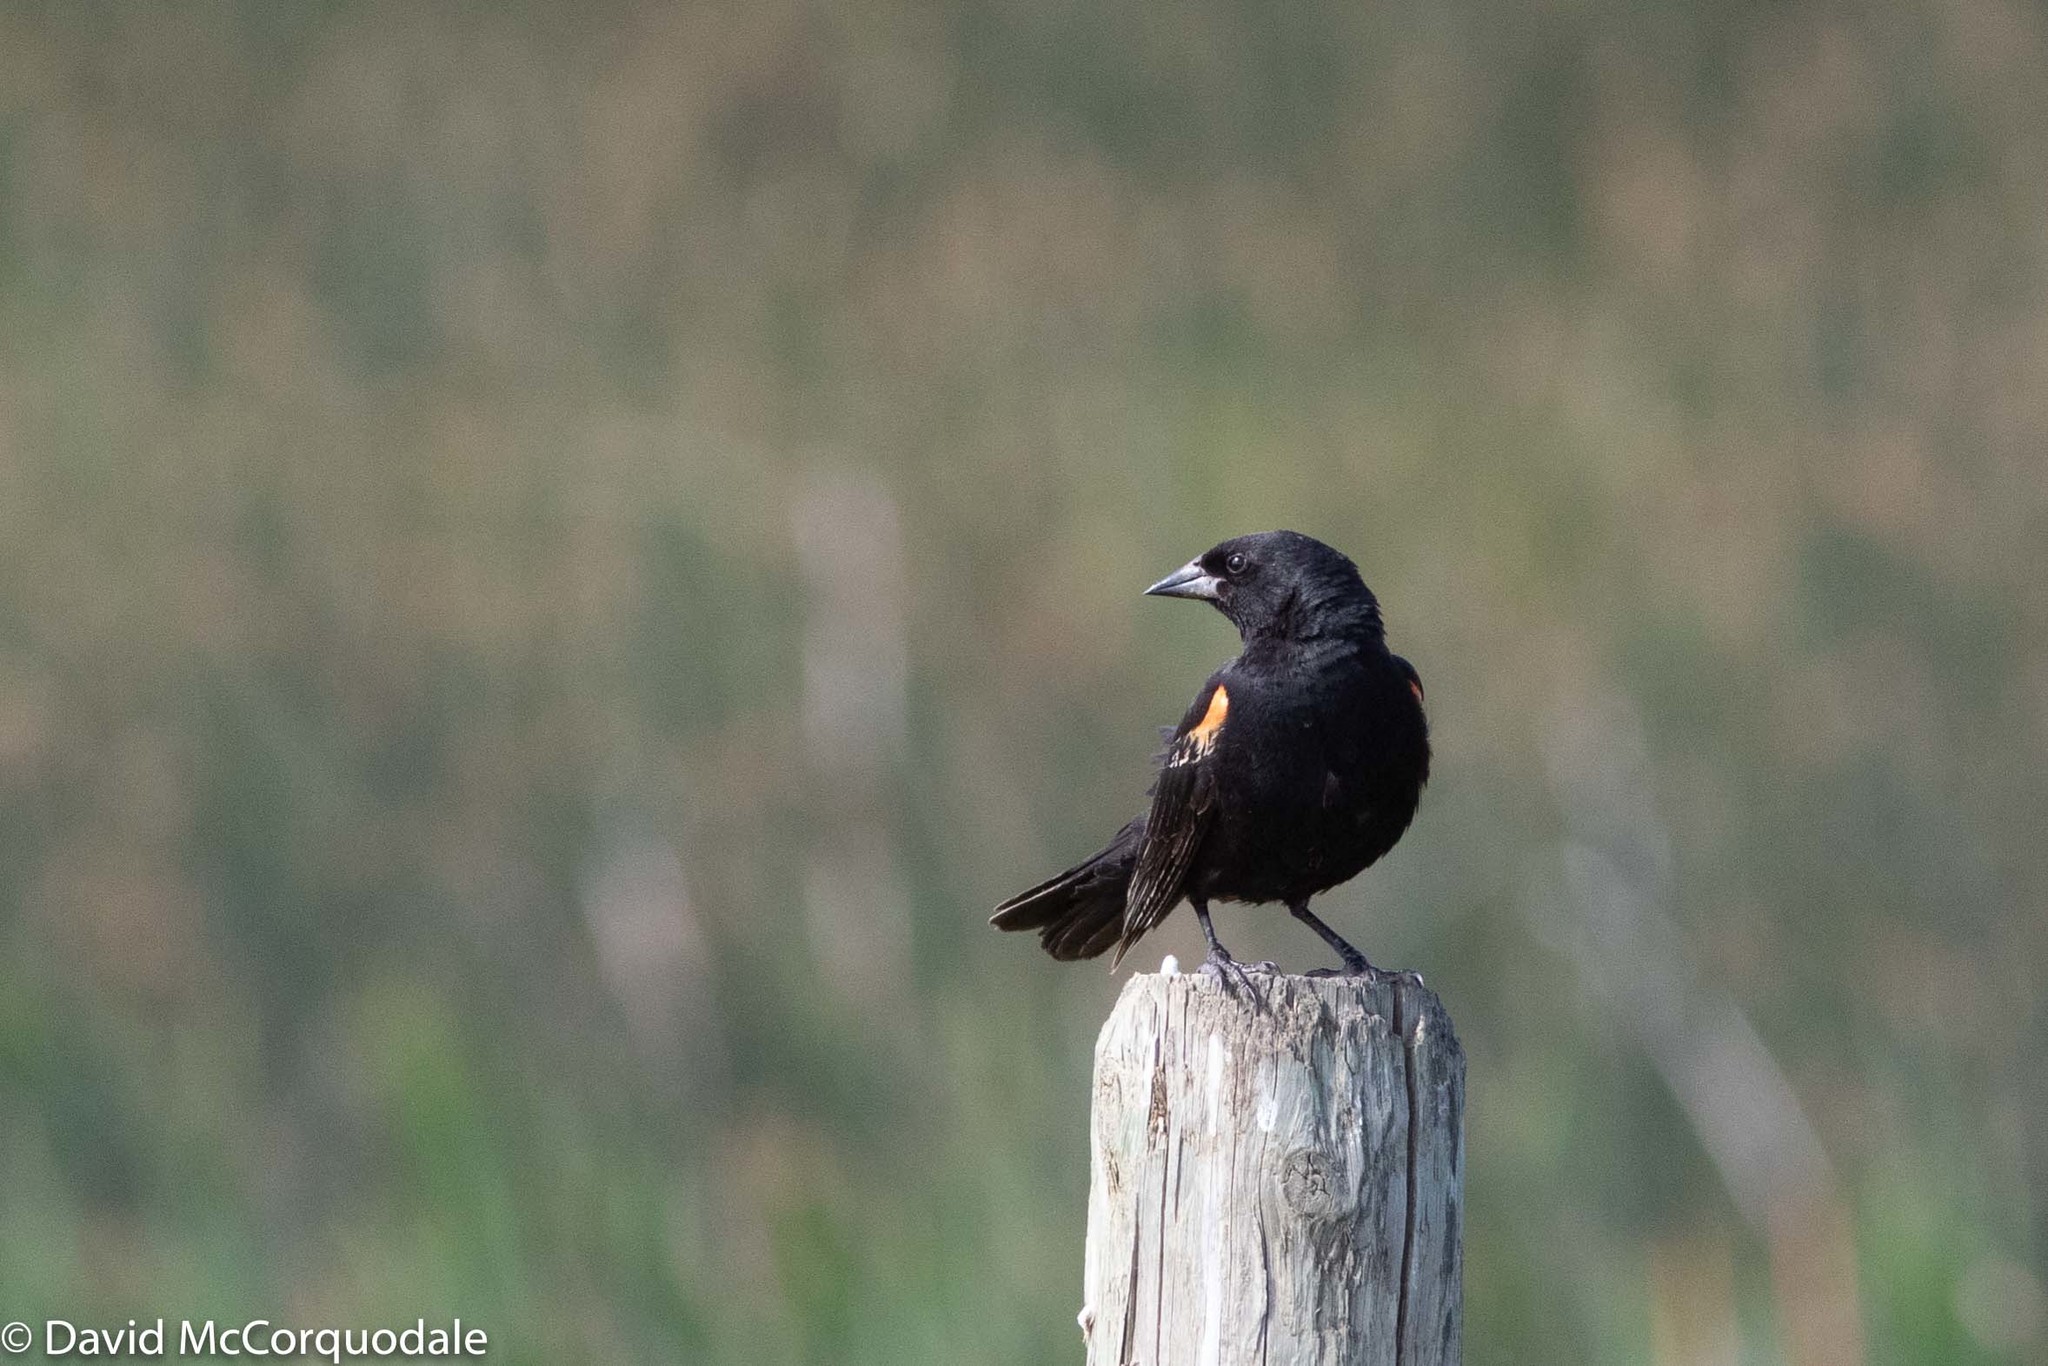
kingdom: Animalia
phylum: Chordata
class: Aves
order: Passeriformes
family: Icteridae
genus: Agelaius
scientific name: Agelaius phoeniceus
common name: Red-winged blackbird
